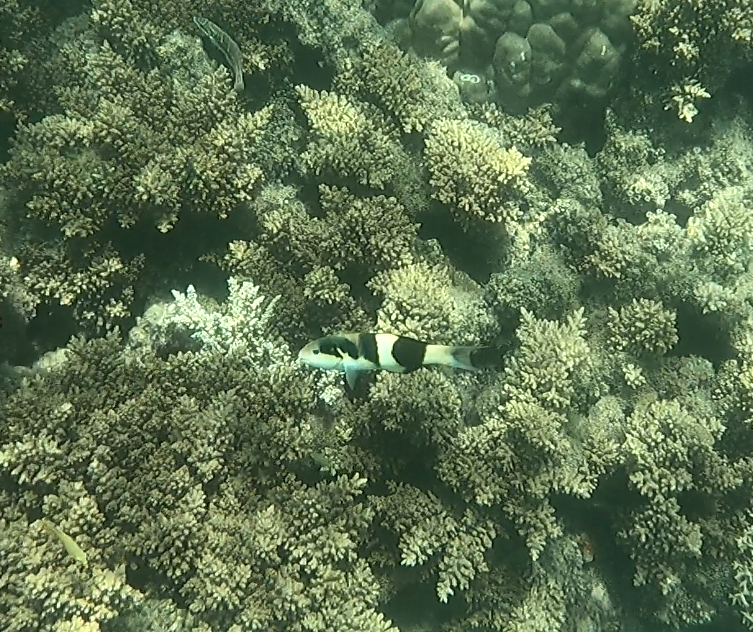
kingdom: Animalia
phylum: Chordata
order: Perciformes
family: Labridae
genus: Thalassoma
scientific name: Thalassoma nigrofasciatum
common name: Black-barred wrasse
